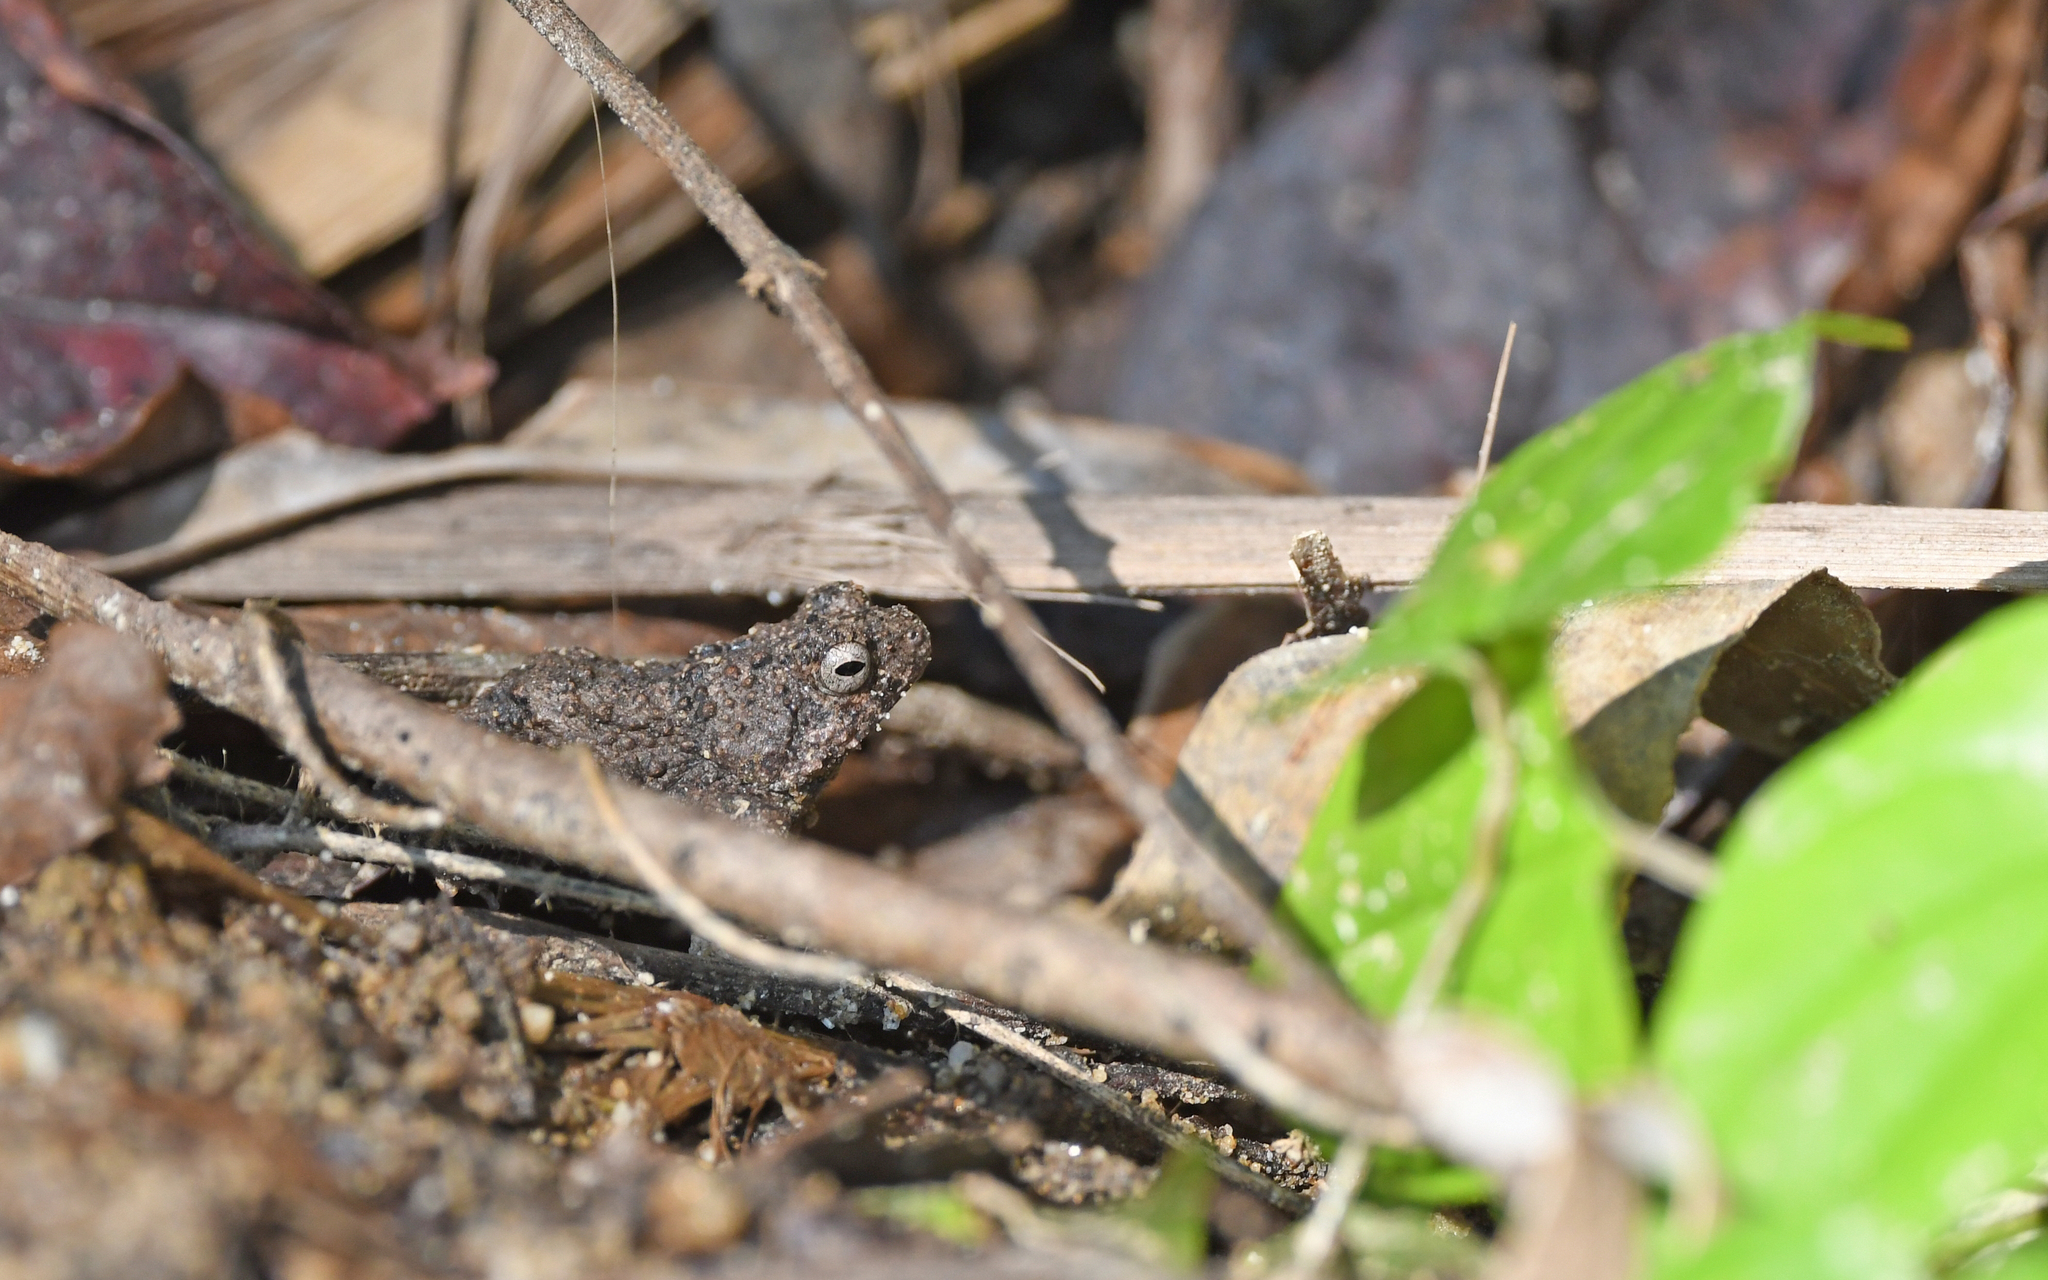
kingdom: Animalia
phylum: Chordata
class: Amphibia
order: Anura
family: Leptodactylidae
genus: Engystomops
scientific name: Engystomops pustulosus
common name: Tungara frog
